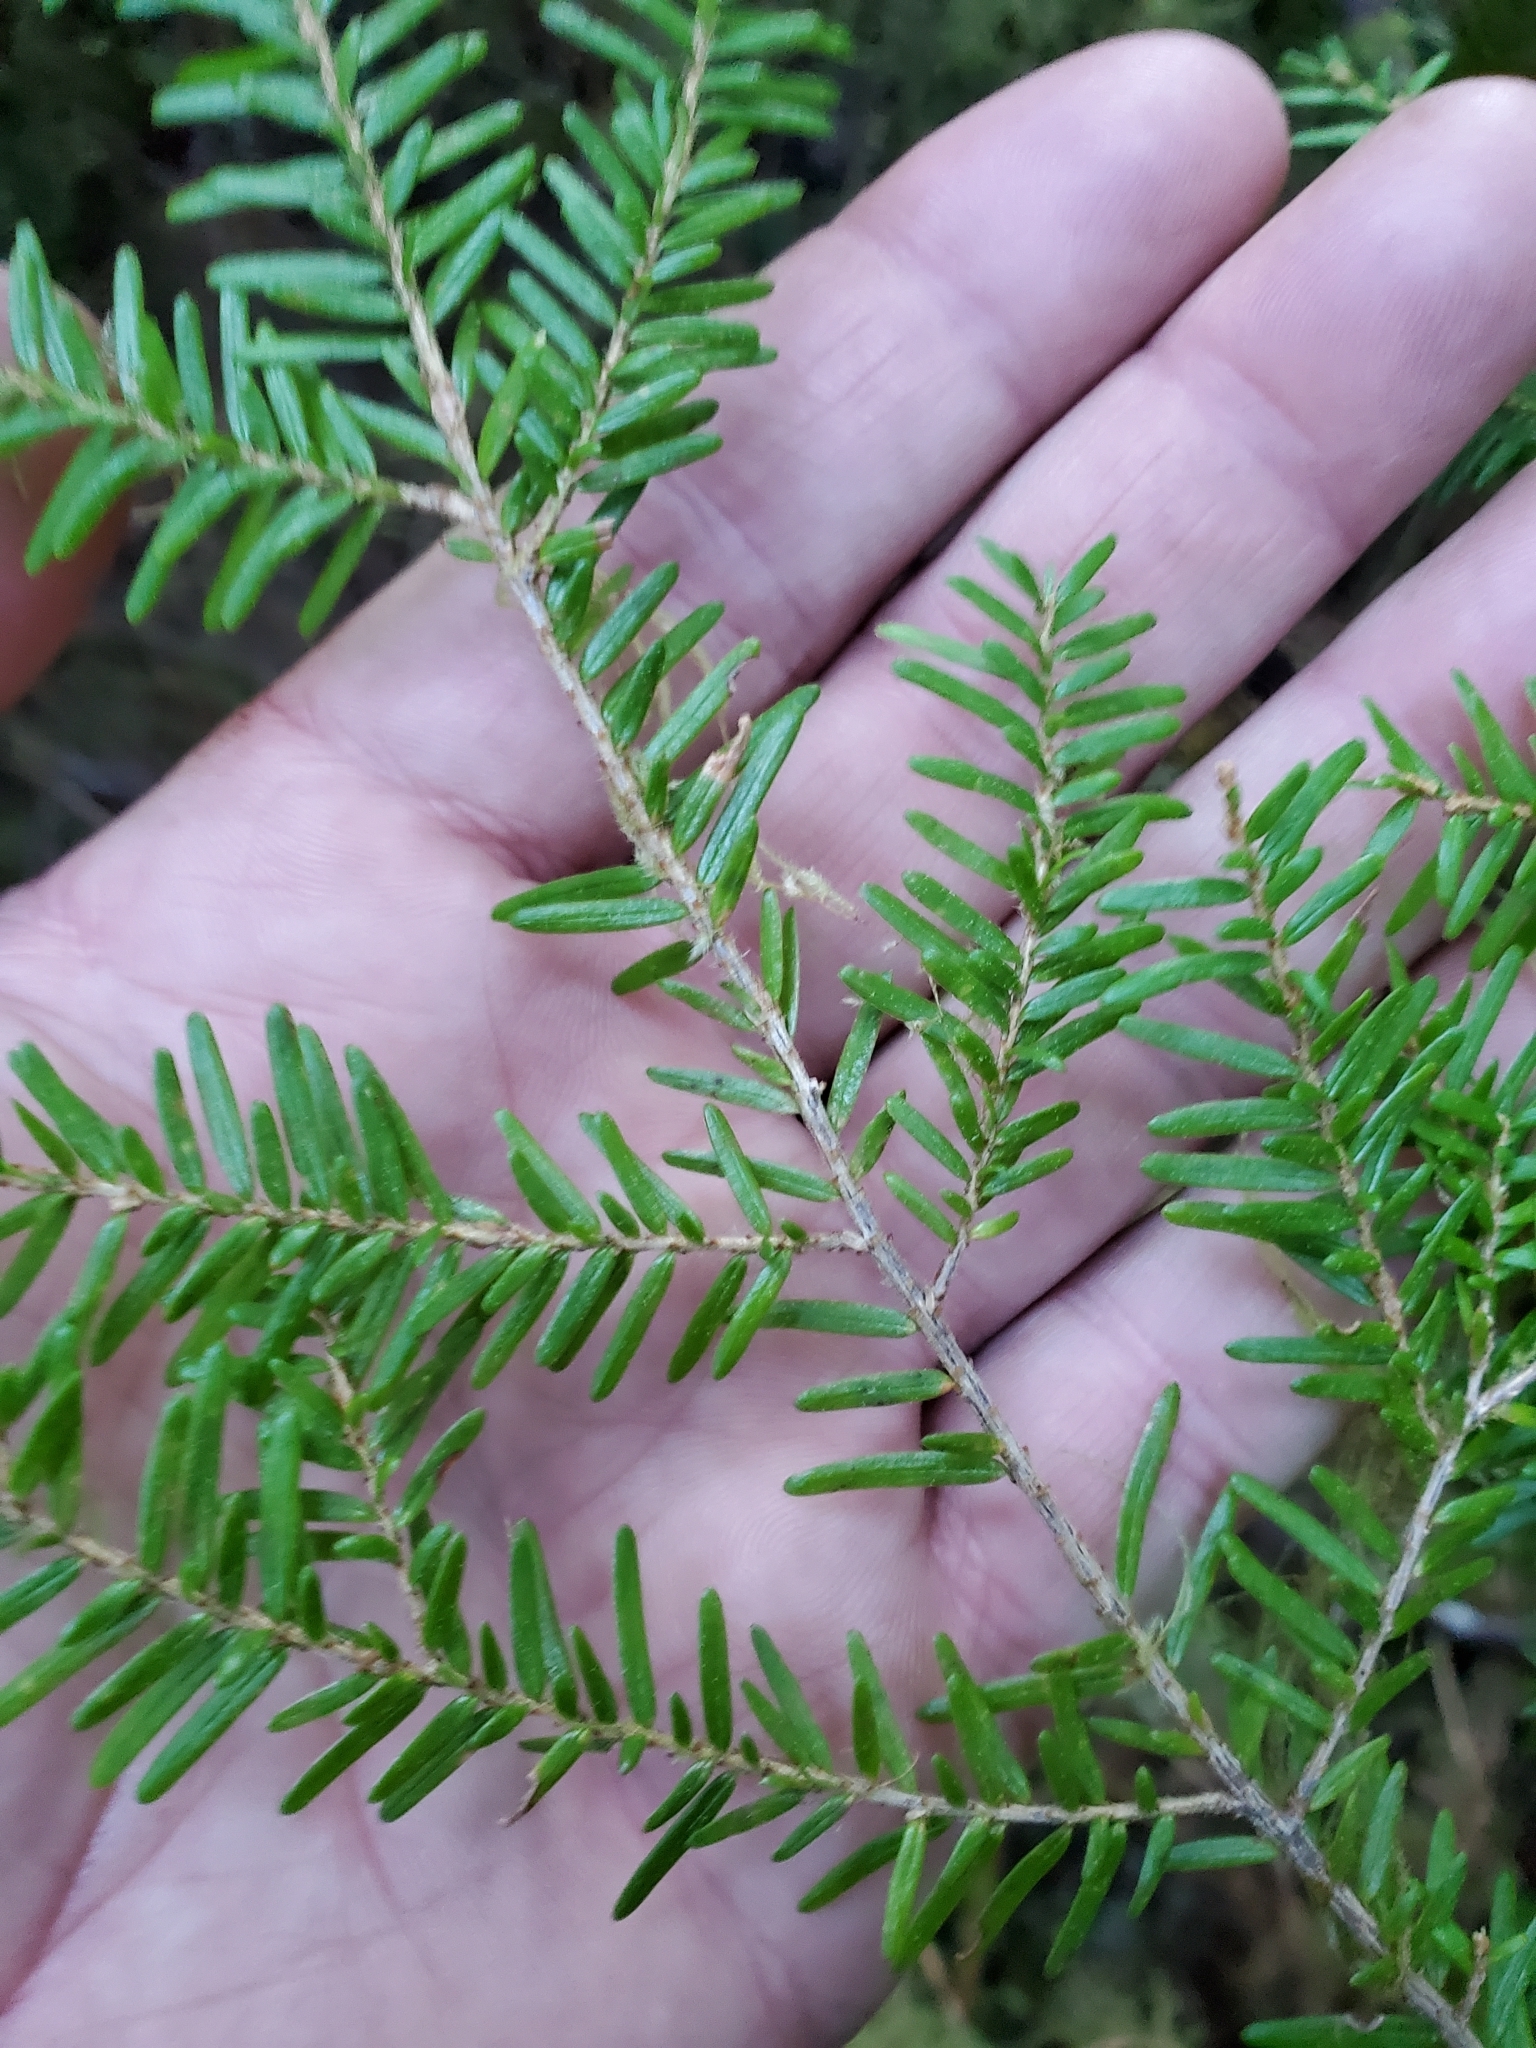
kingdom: Plantae
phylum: Tracheophyta
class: Pinopsida
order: Pinales
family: Pinaceae
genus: Tsuga
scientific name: Tsuga heterophylla
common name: Western hemlock
